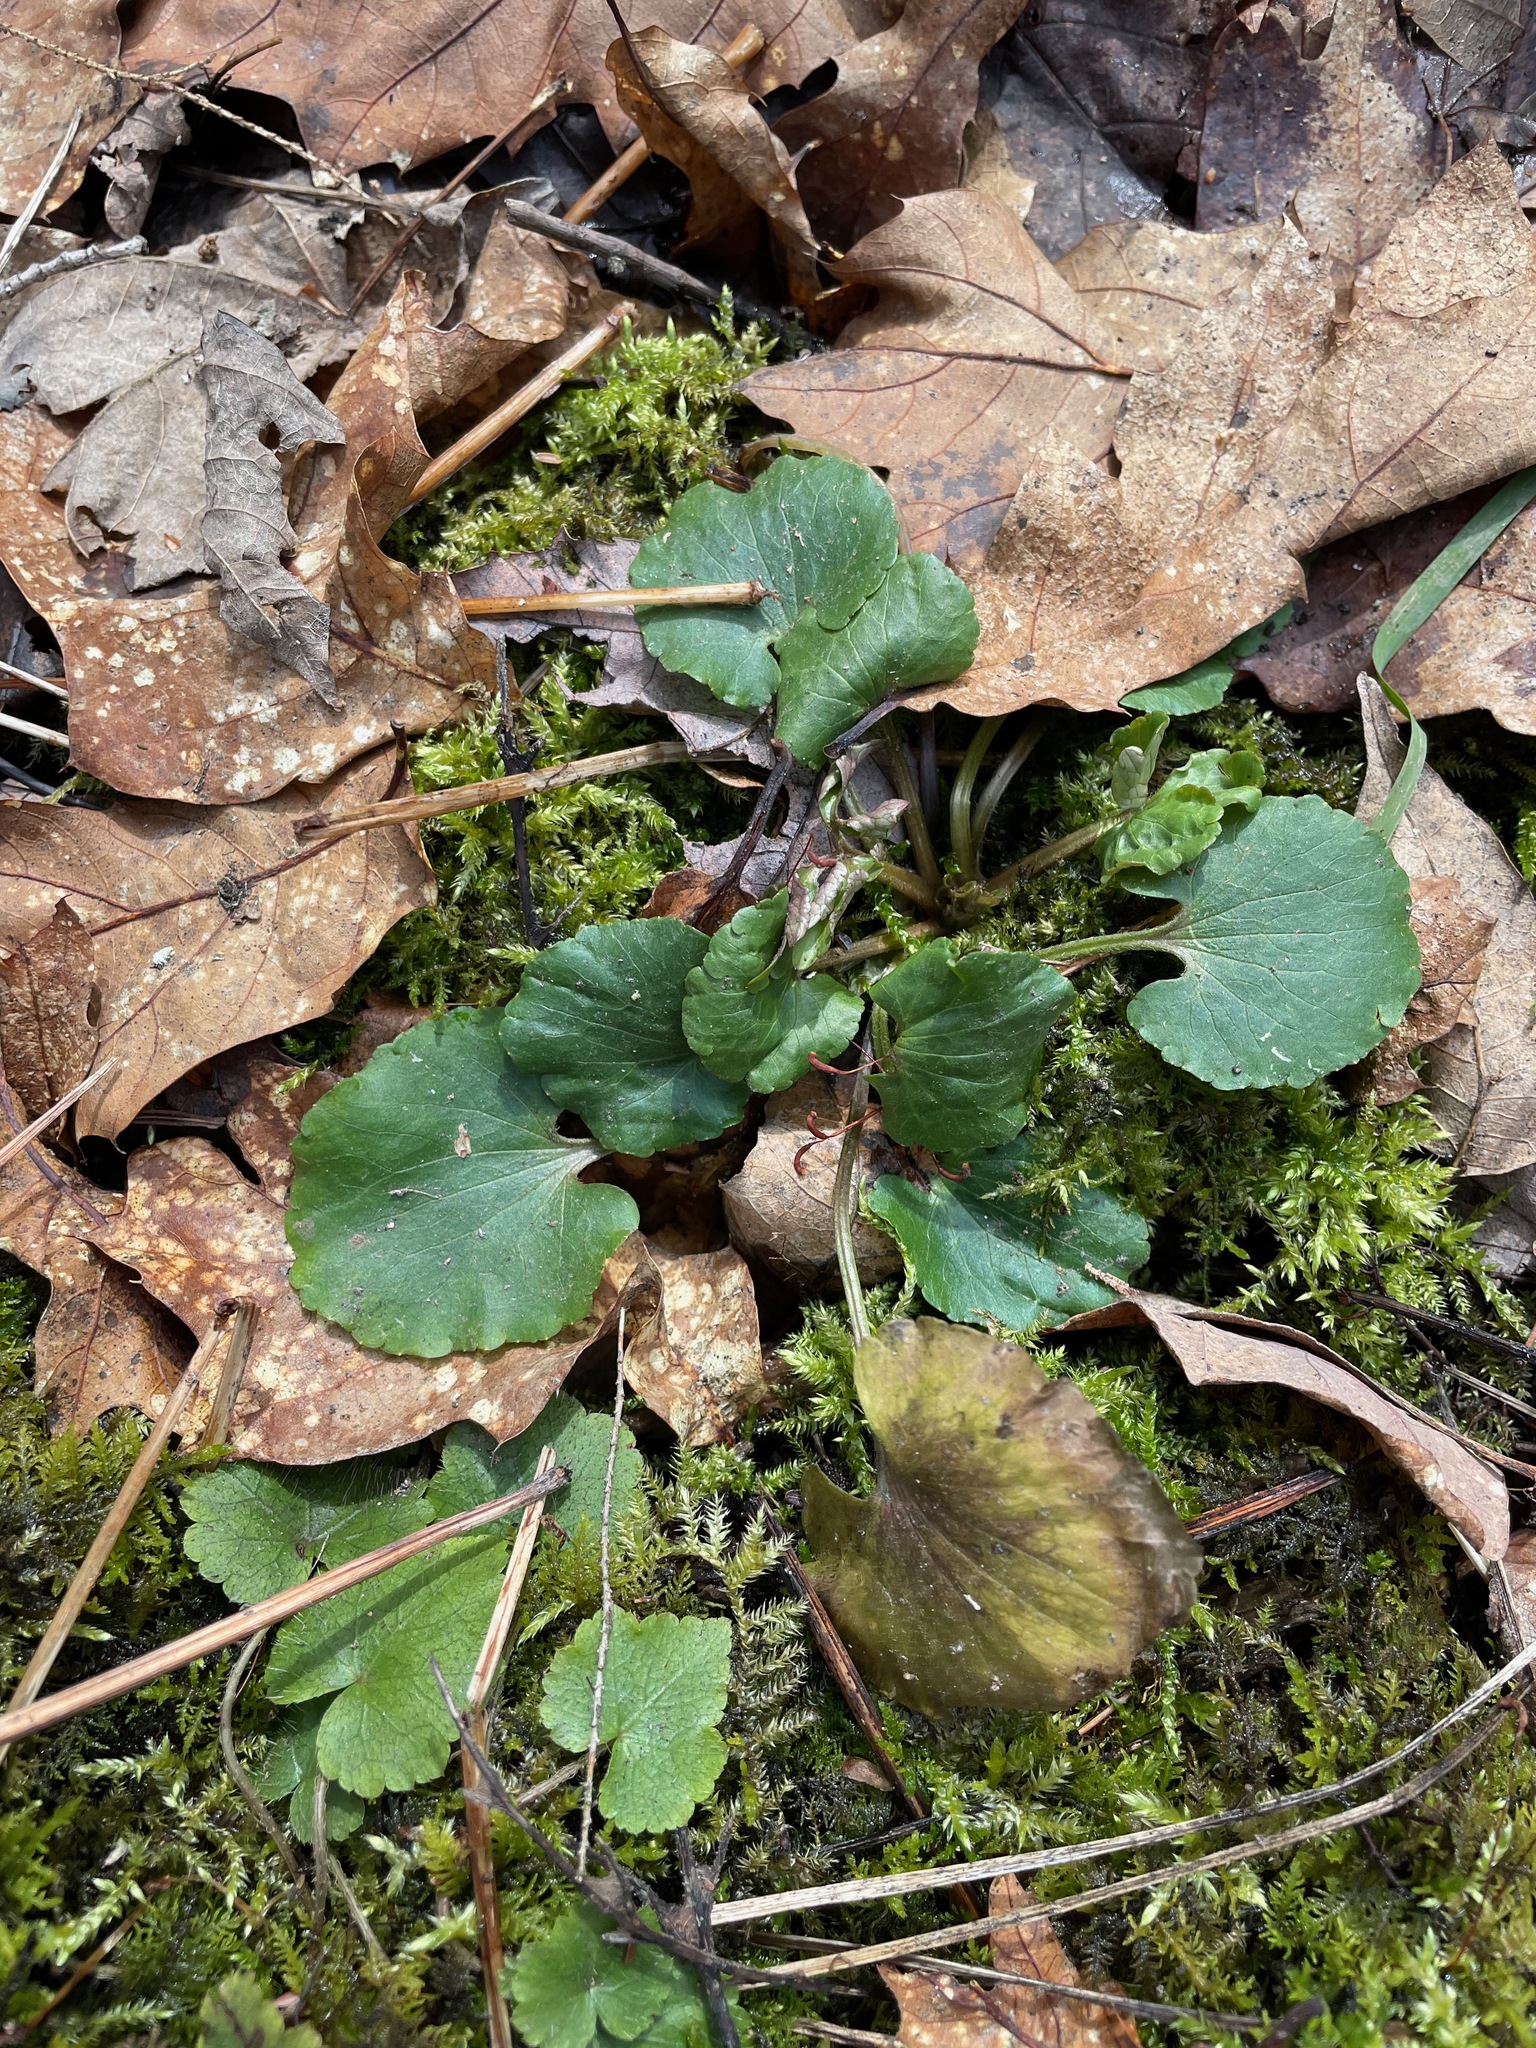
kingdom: Plantae
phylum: Tracheophyta
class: Magnoliopsida
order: Ranunculales
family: Ranunculaceae
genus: Ranunculus
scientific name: Ranunculus abortivus
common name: Early wood buttercup
